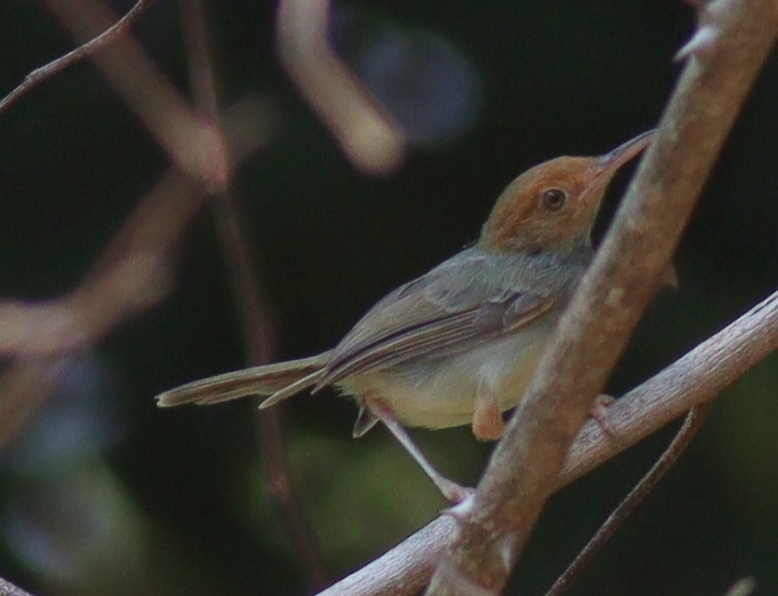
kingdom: Animalia
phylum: Chordata
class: Aves
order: Passeriformes
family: Cisticolidae
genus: Orthotomus
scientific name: Orthotomus sepium
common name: Olive-backed tailorbird
